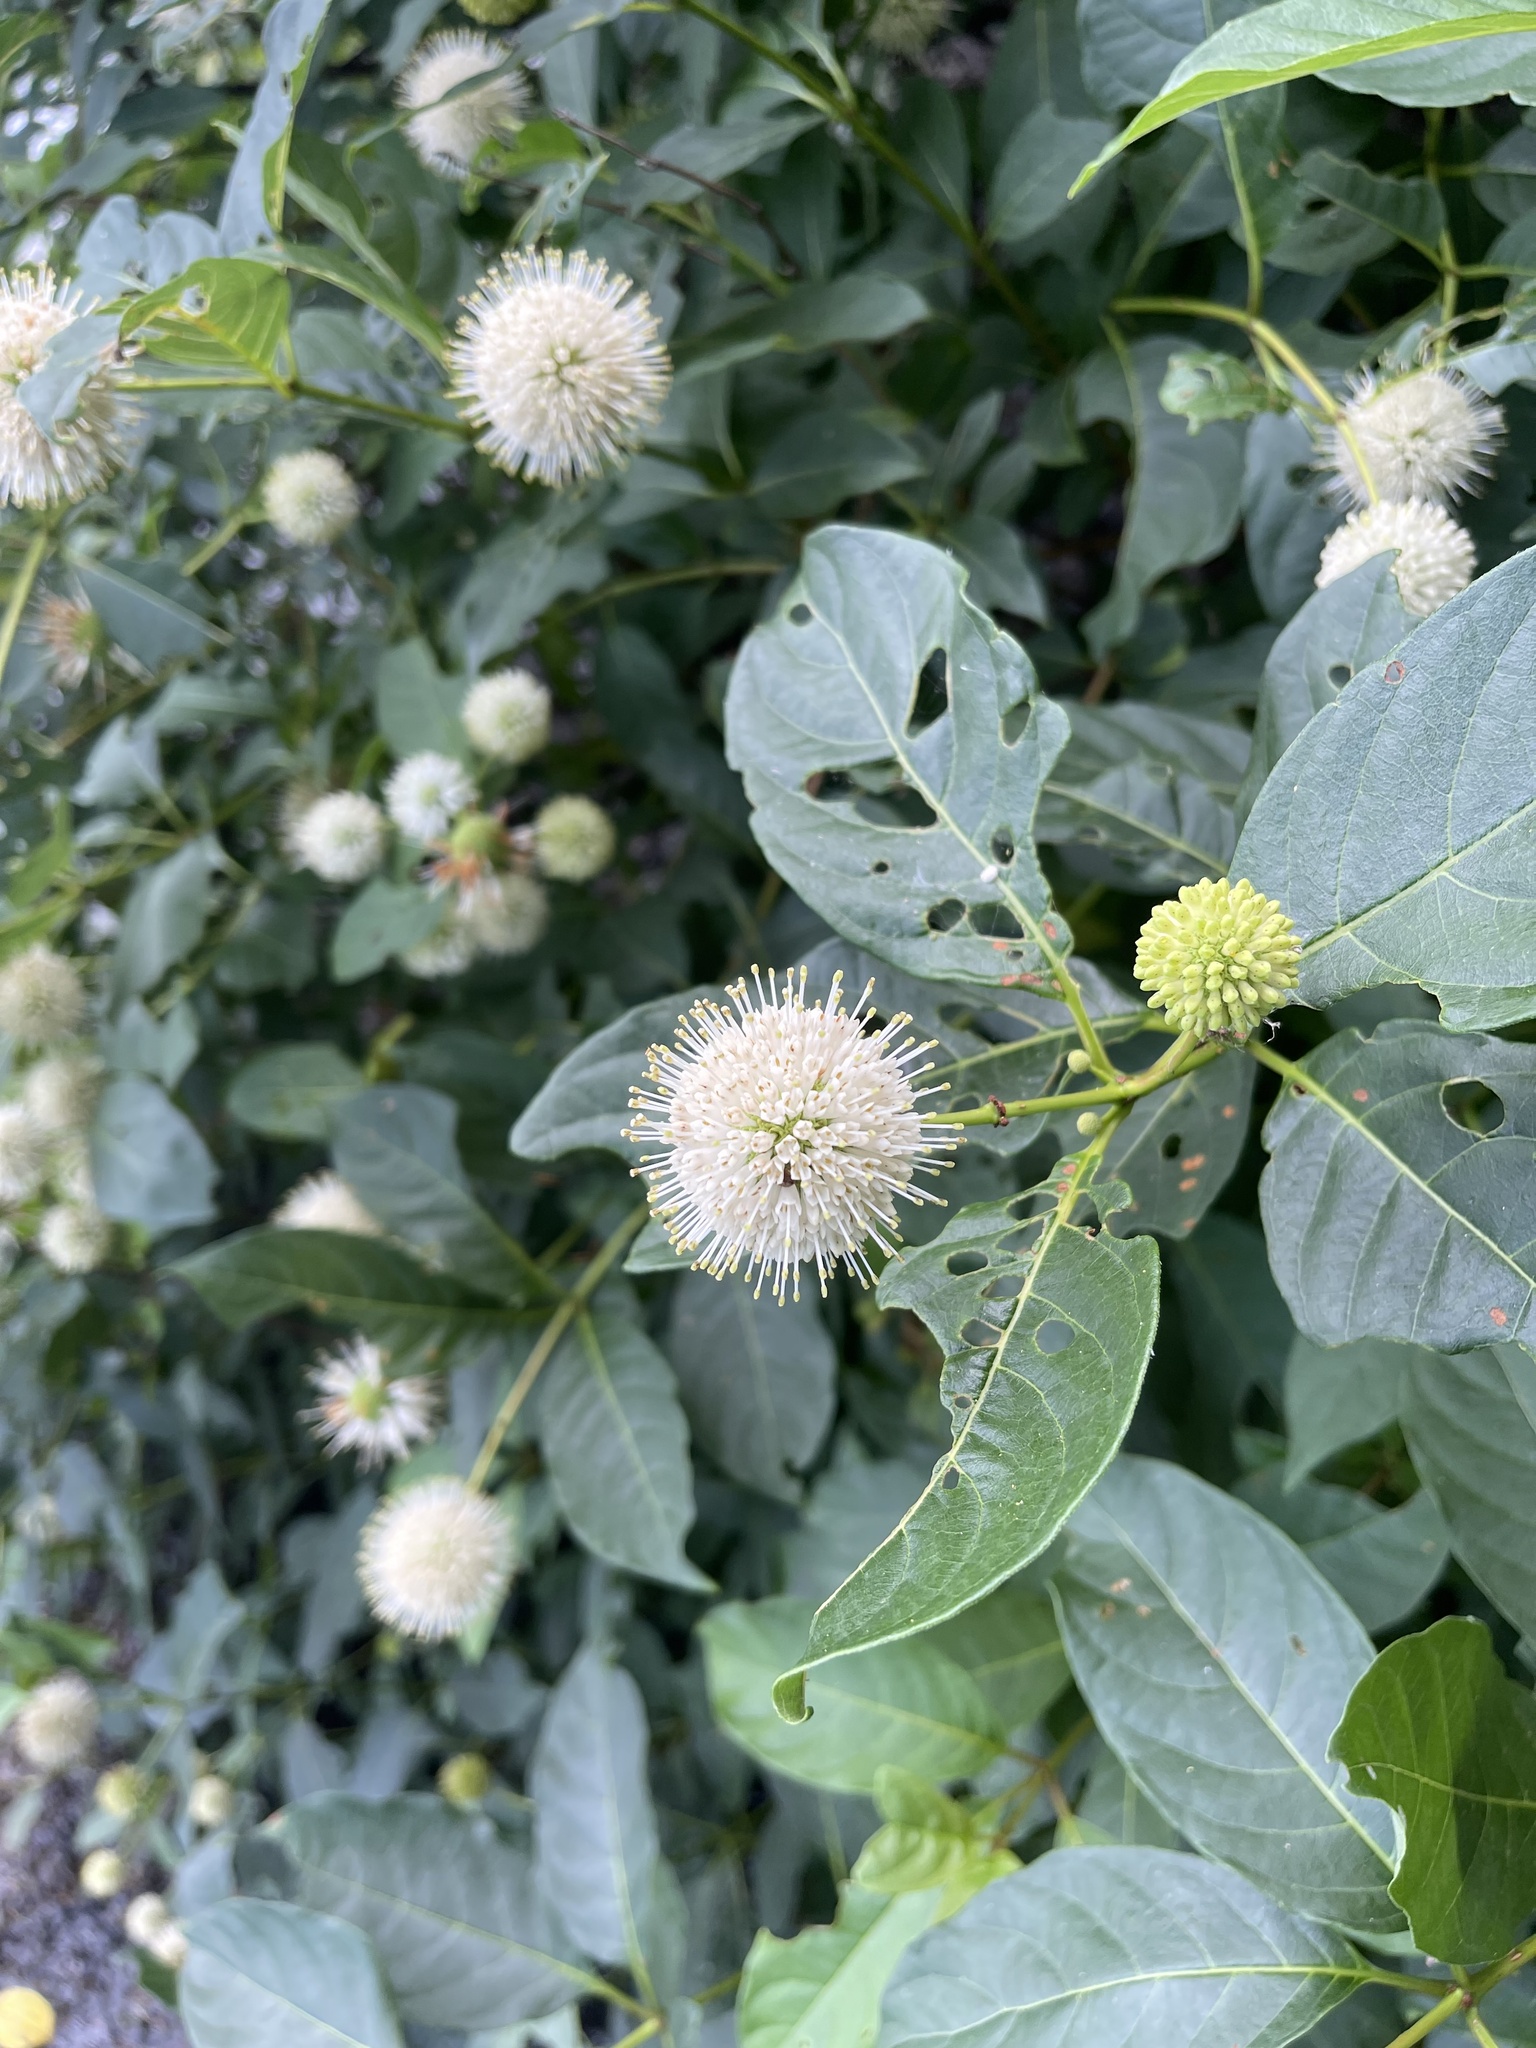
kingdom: Plantae
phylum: Tracheophyta
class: Magnoliopsida
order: Gentianales
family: Rubiaceae
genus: Cephalanthus
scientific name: Cephalanthus occidentalis
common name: Button-willow
